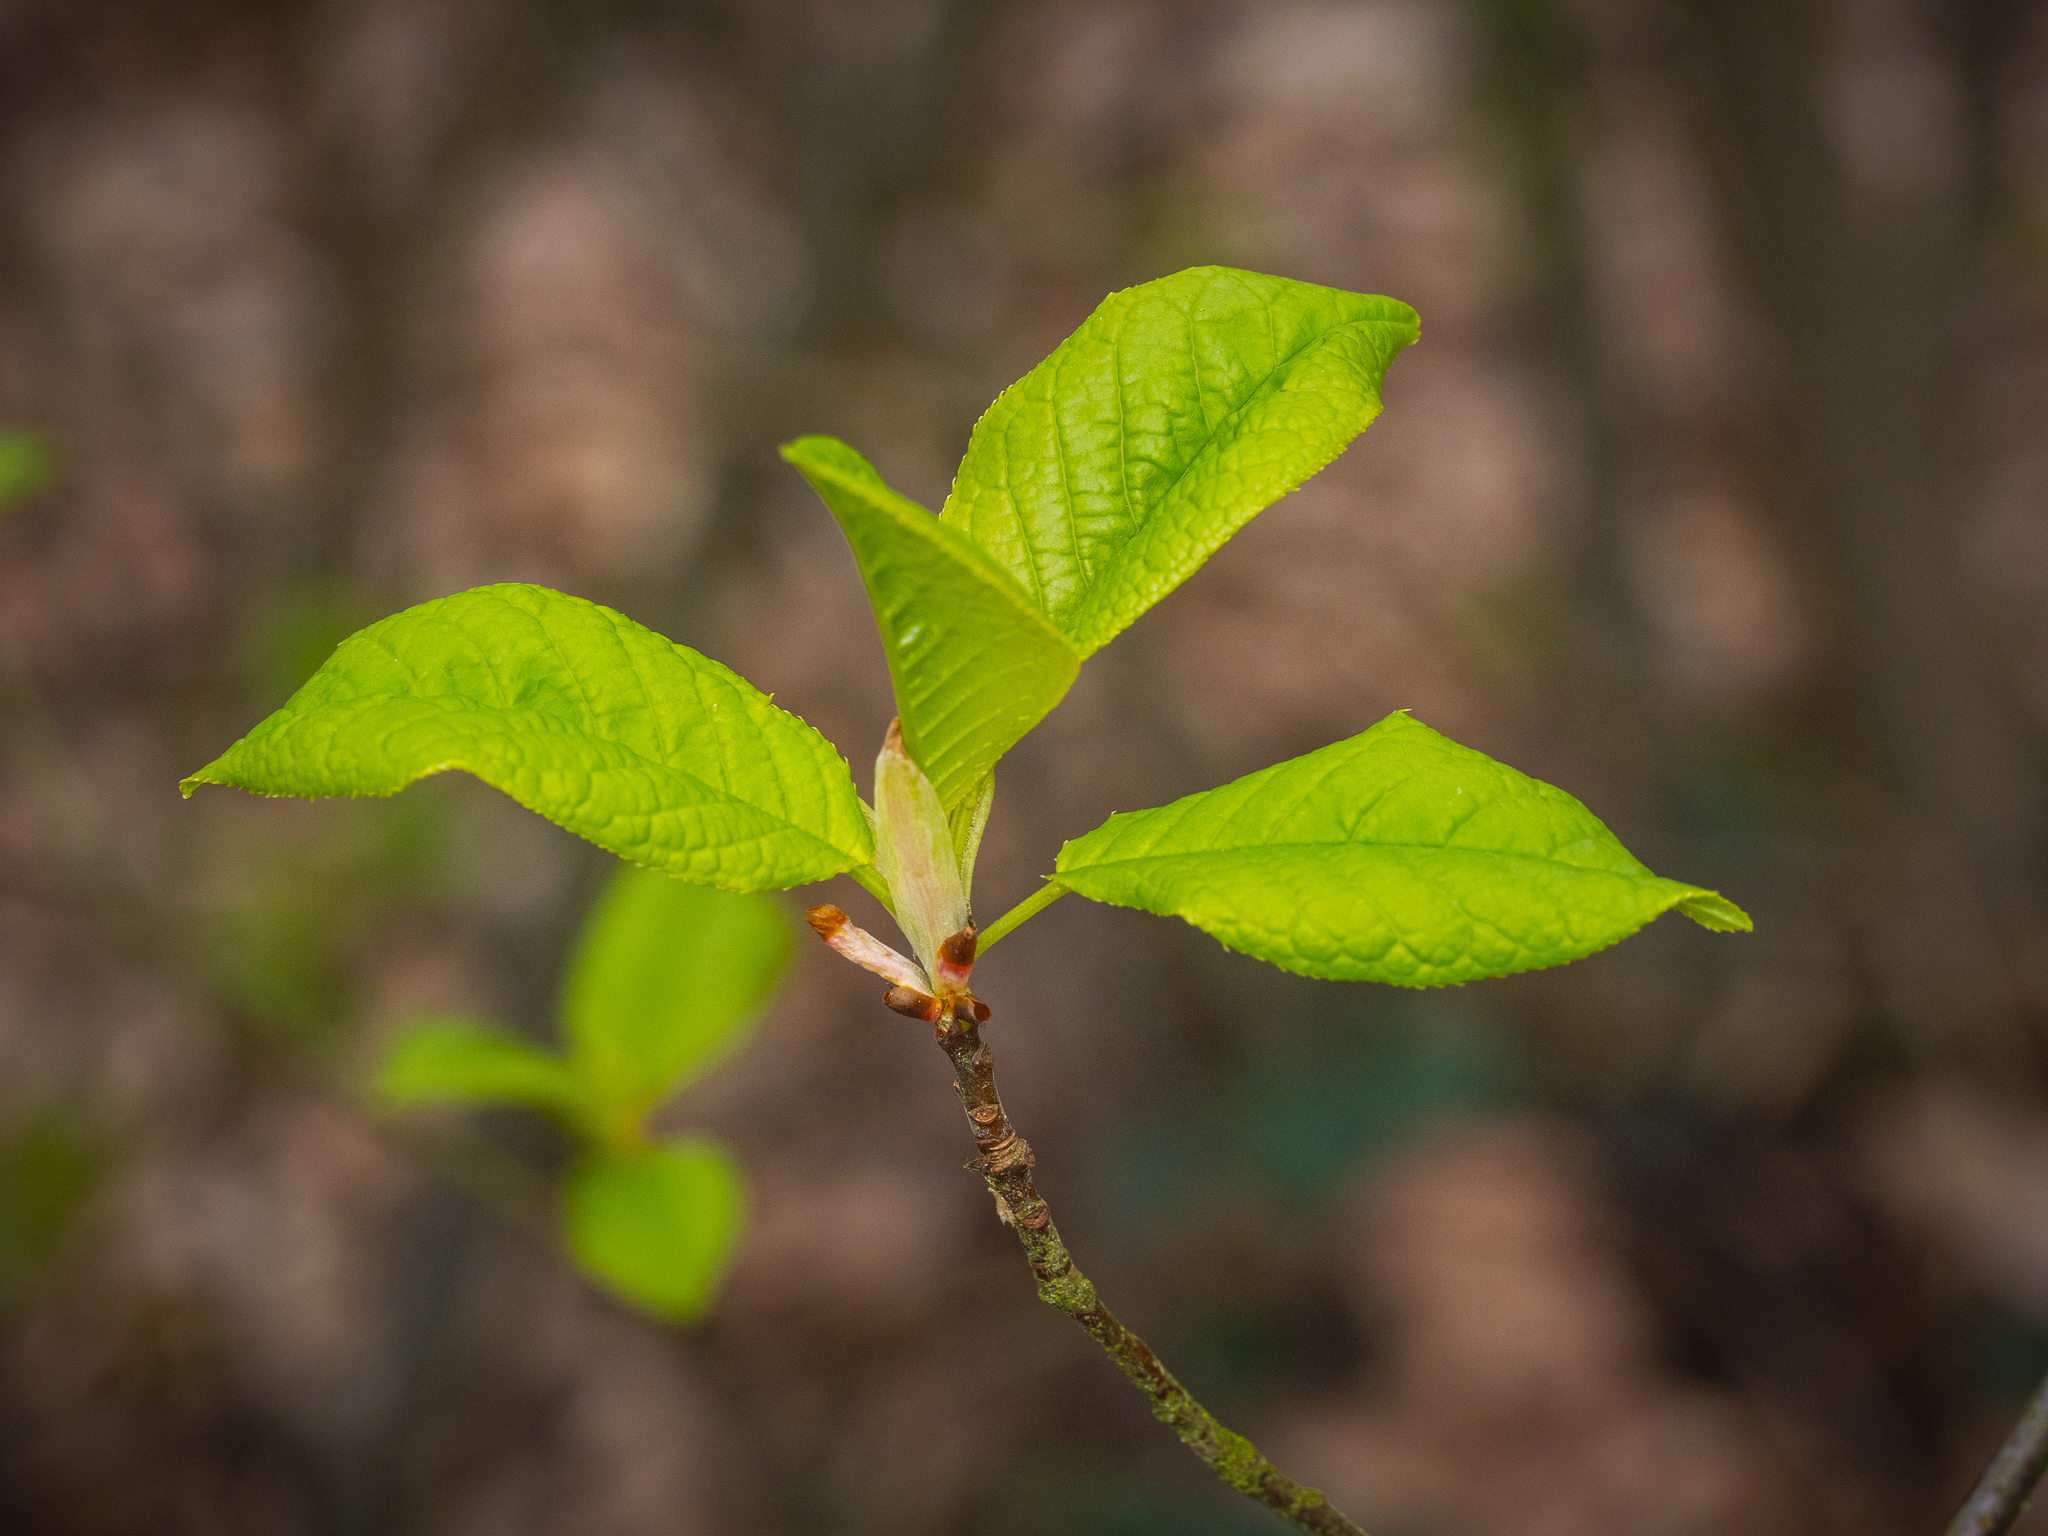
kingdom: Plantae
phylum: Tracheophyta
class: Magnoliopsida
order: Rosales
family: Rosaceae
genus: Prunus
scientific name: Prunus padus
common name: Bird cherry
